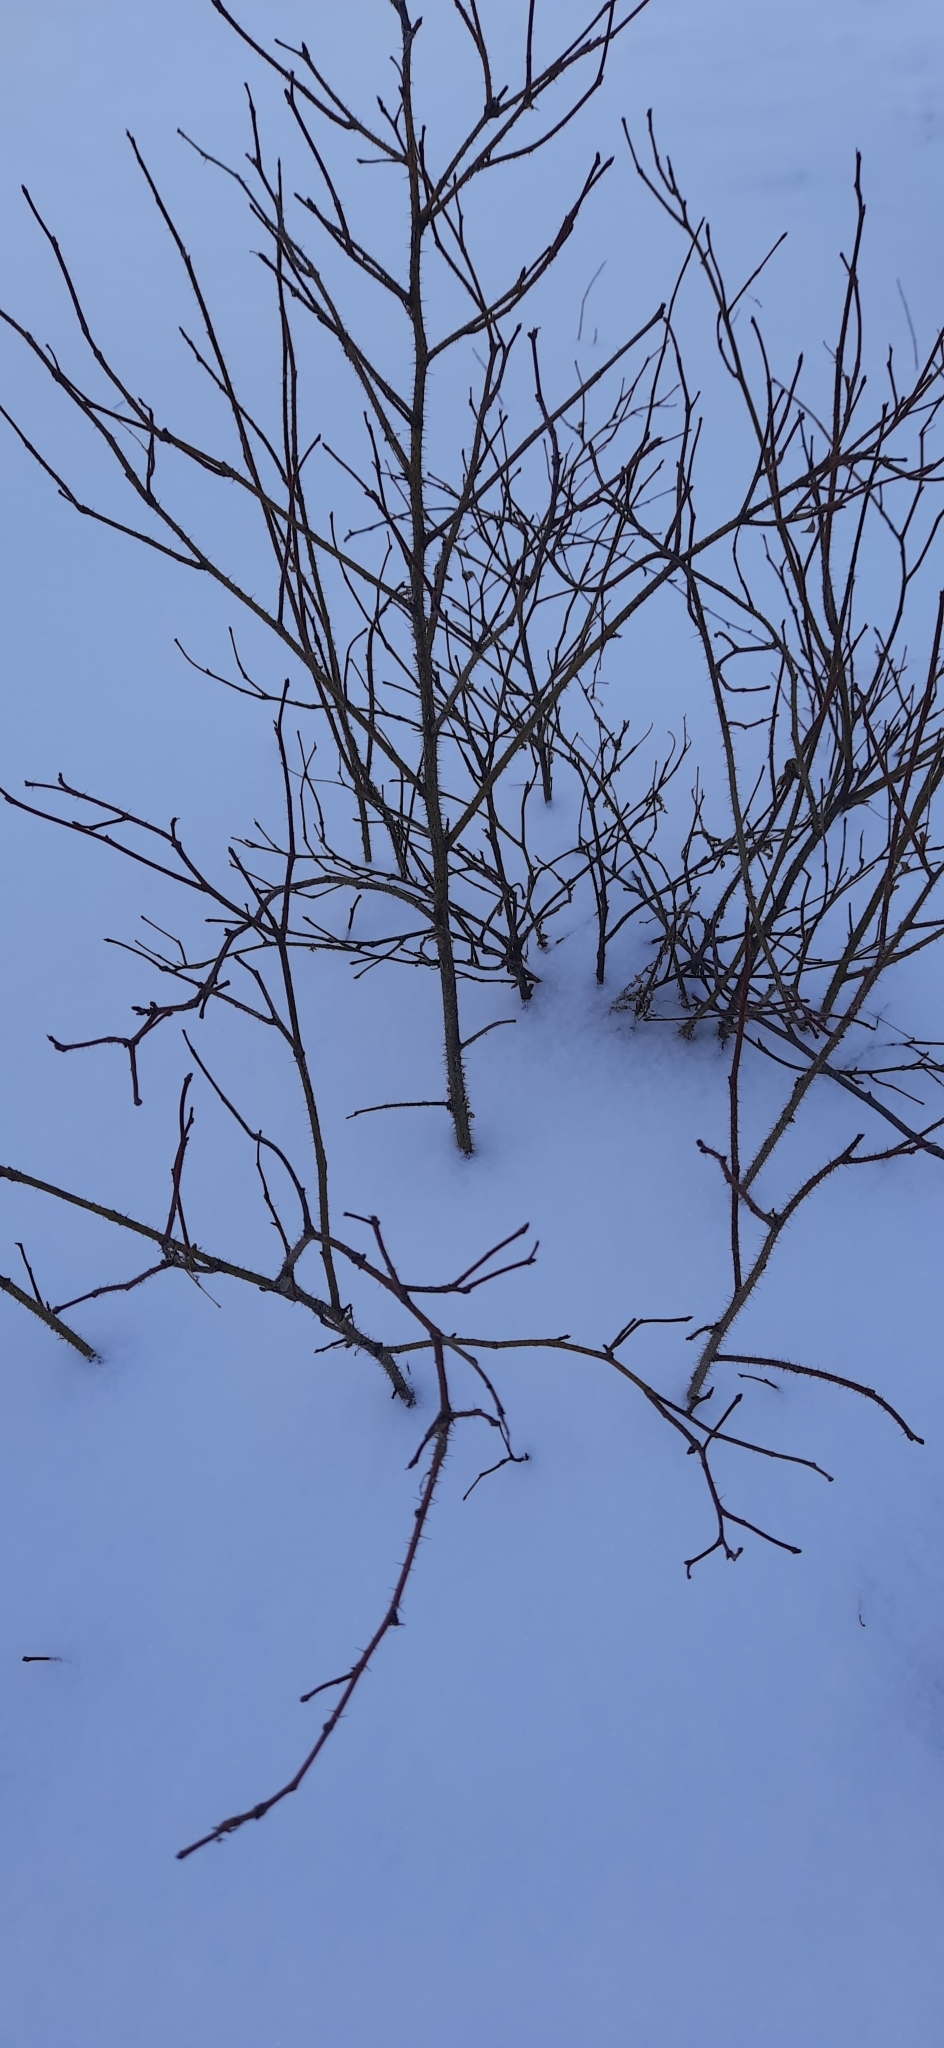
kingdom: Plantae
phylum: Tracheophyta
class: Magnoliopsida
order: Rosales
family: Rosaceae
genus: Rosa
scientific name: Rosa acicularis
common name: Prickly rose
